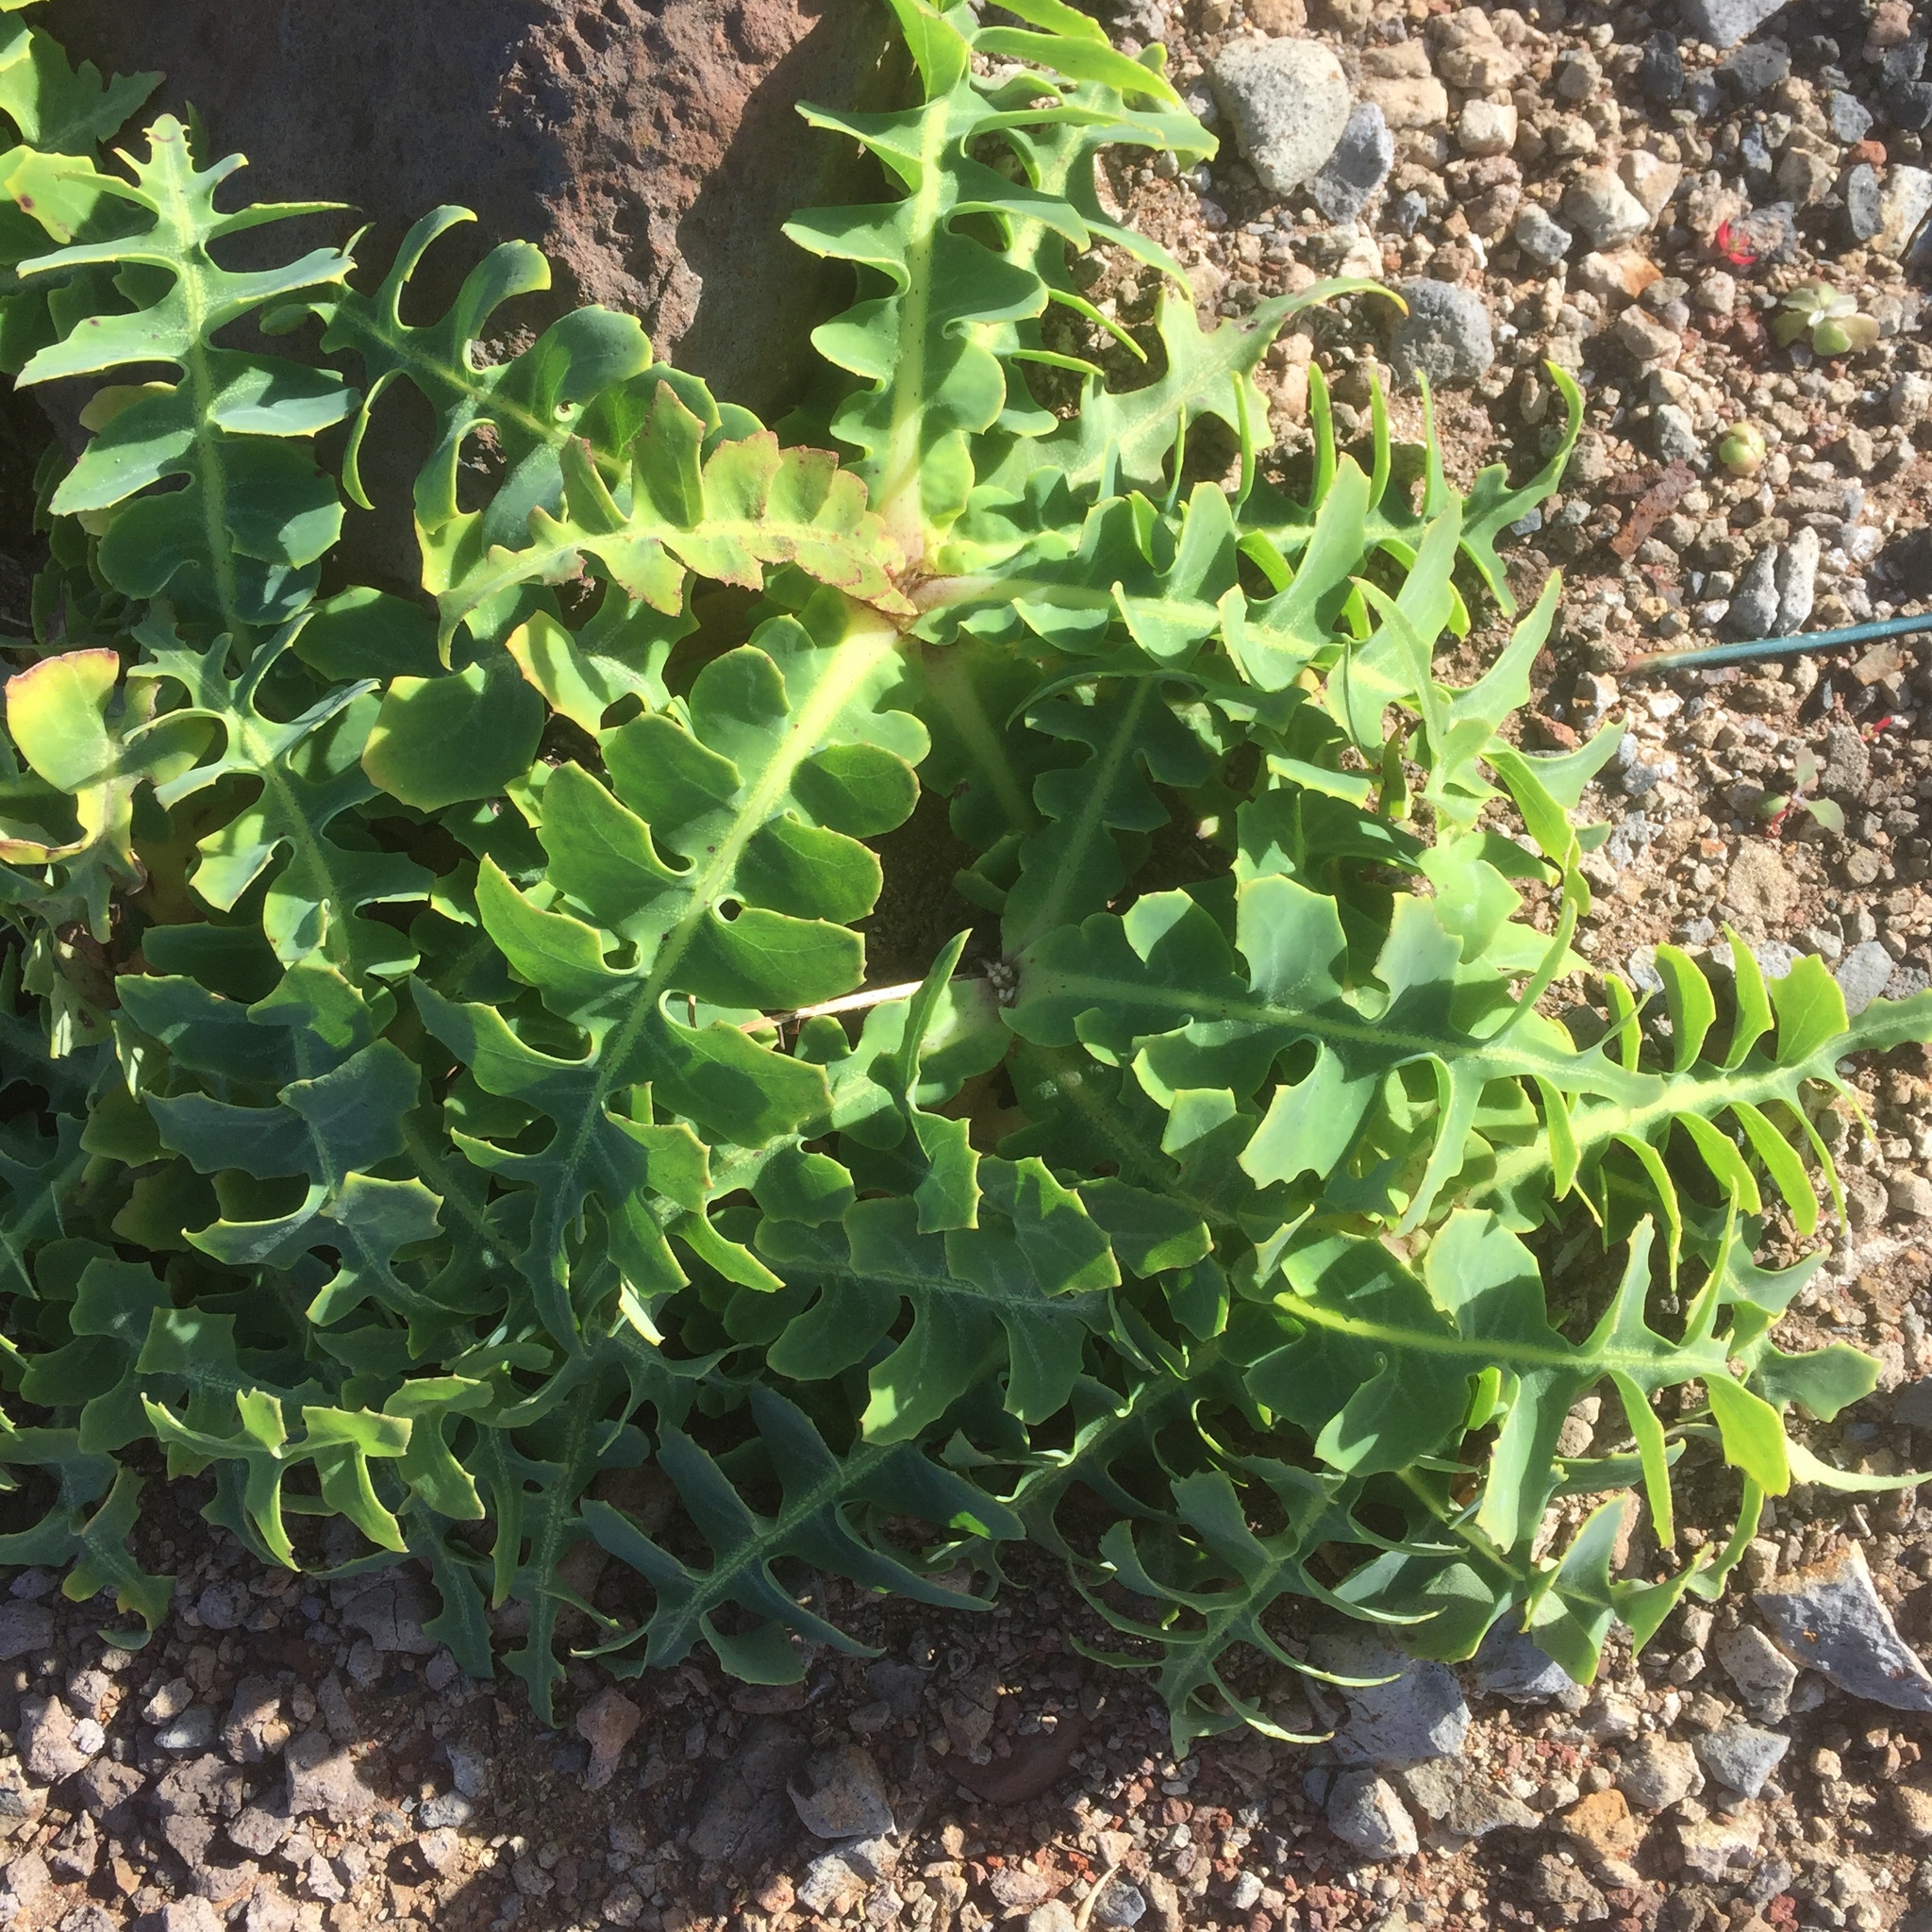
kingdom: Plantae
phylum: Tracheophyta
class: Magnoliopsida
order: Asterales
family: Asteraceae
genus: Sonchus
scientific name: Sonchus latifolius
